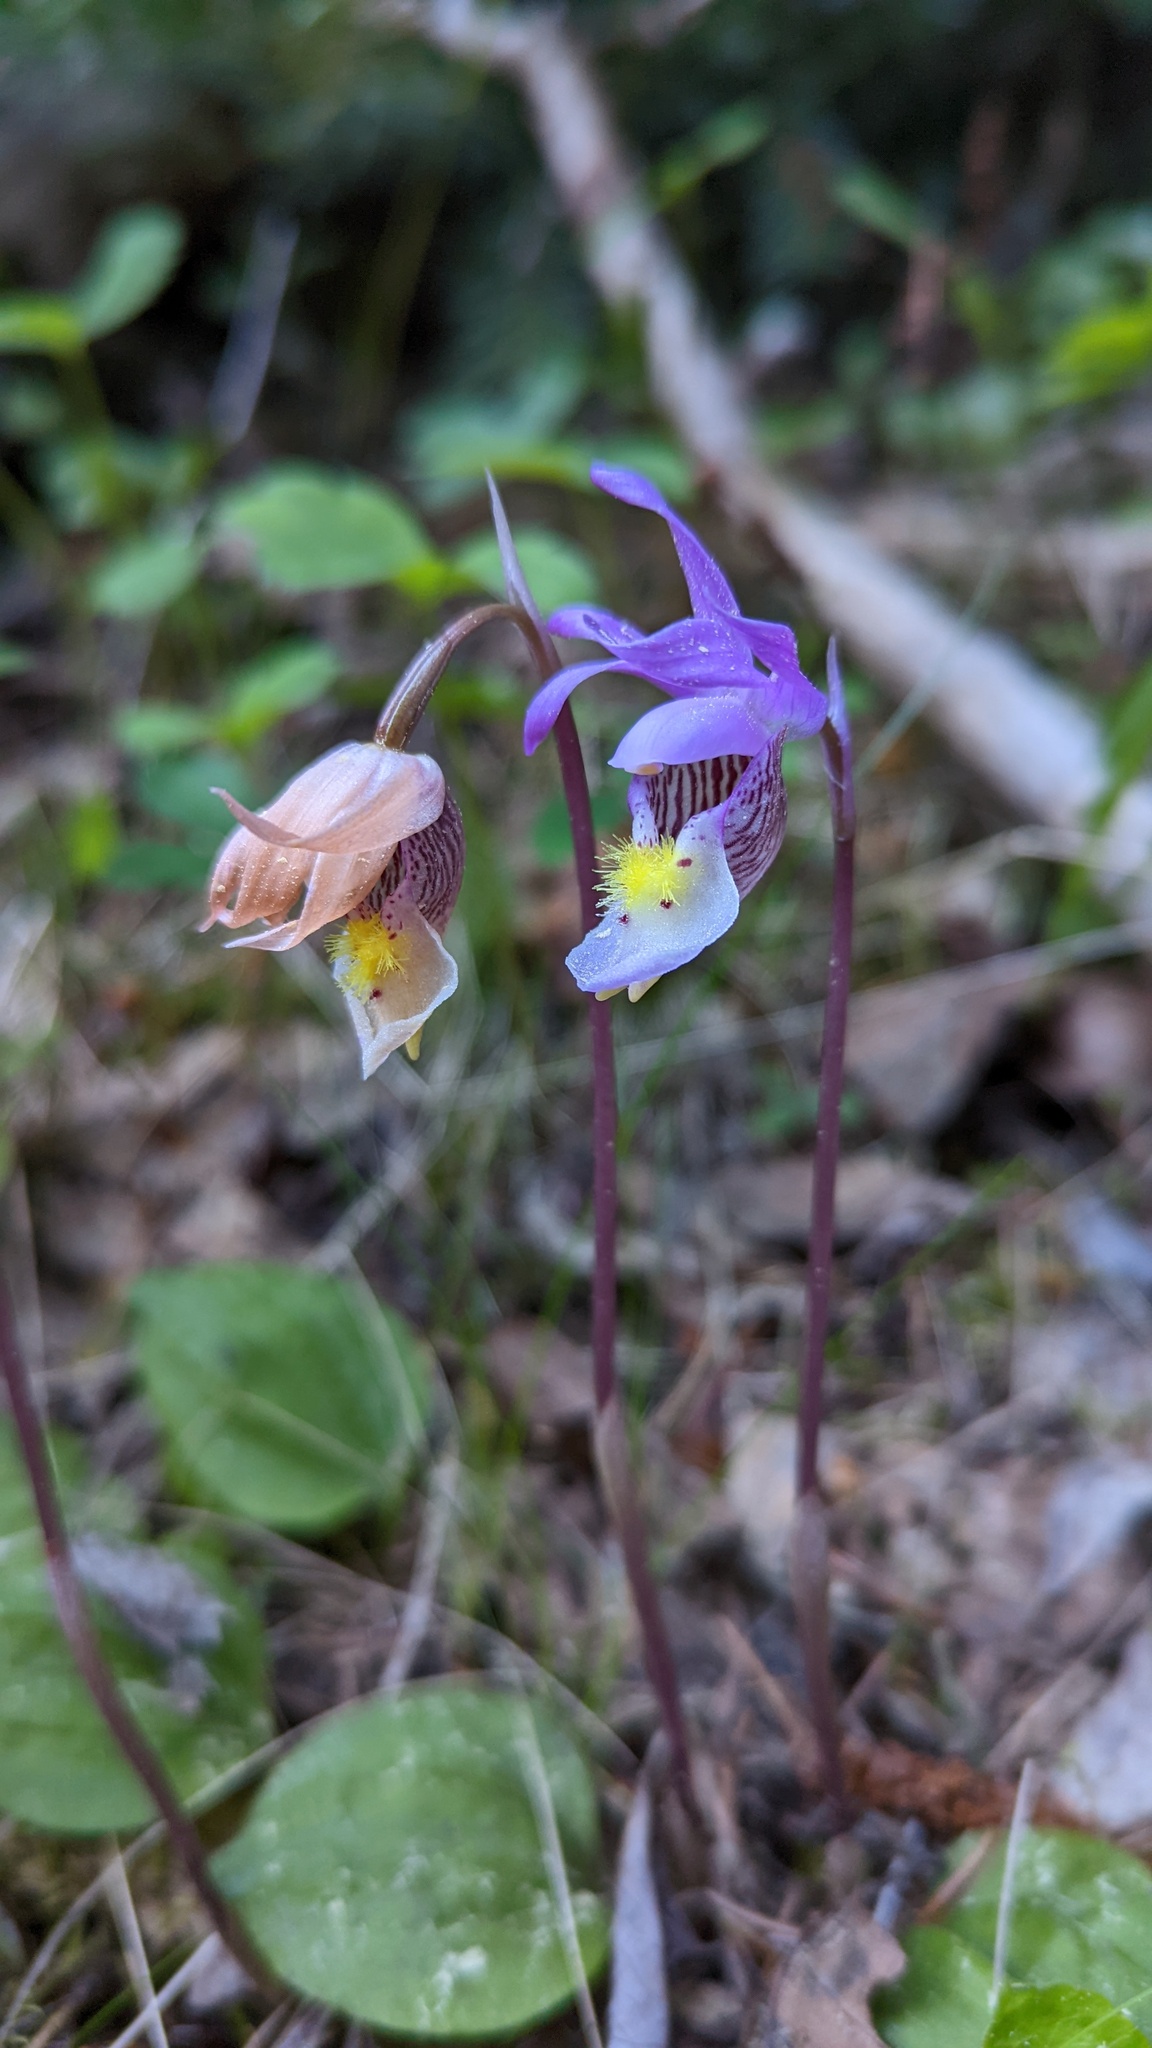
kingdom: Plantae
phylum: Tracheophyta
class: Liliopsida
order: Asparagales
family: Orchidaceae
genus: Calypso
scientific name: Calypso bulbosa
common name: Calypso
